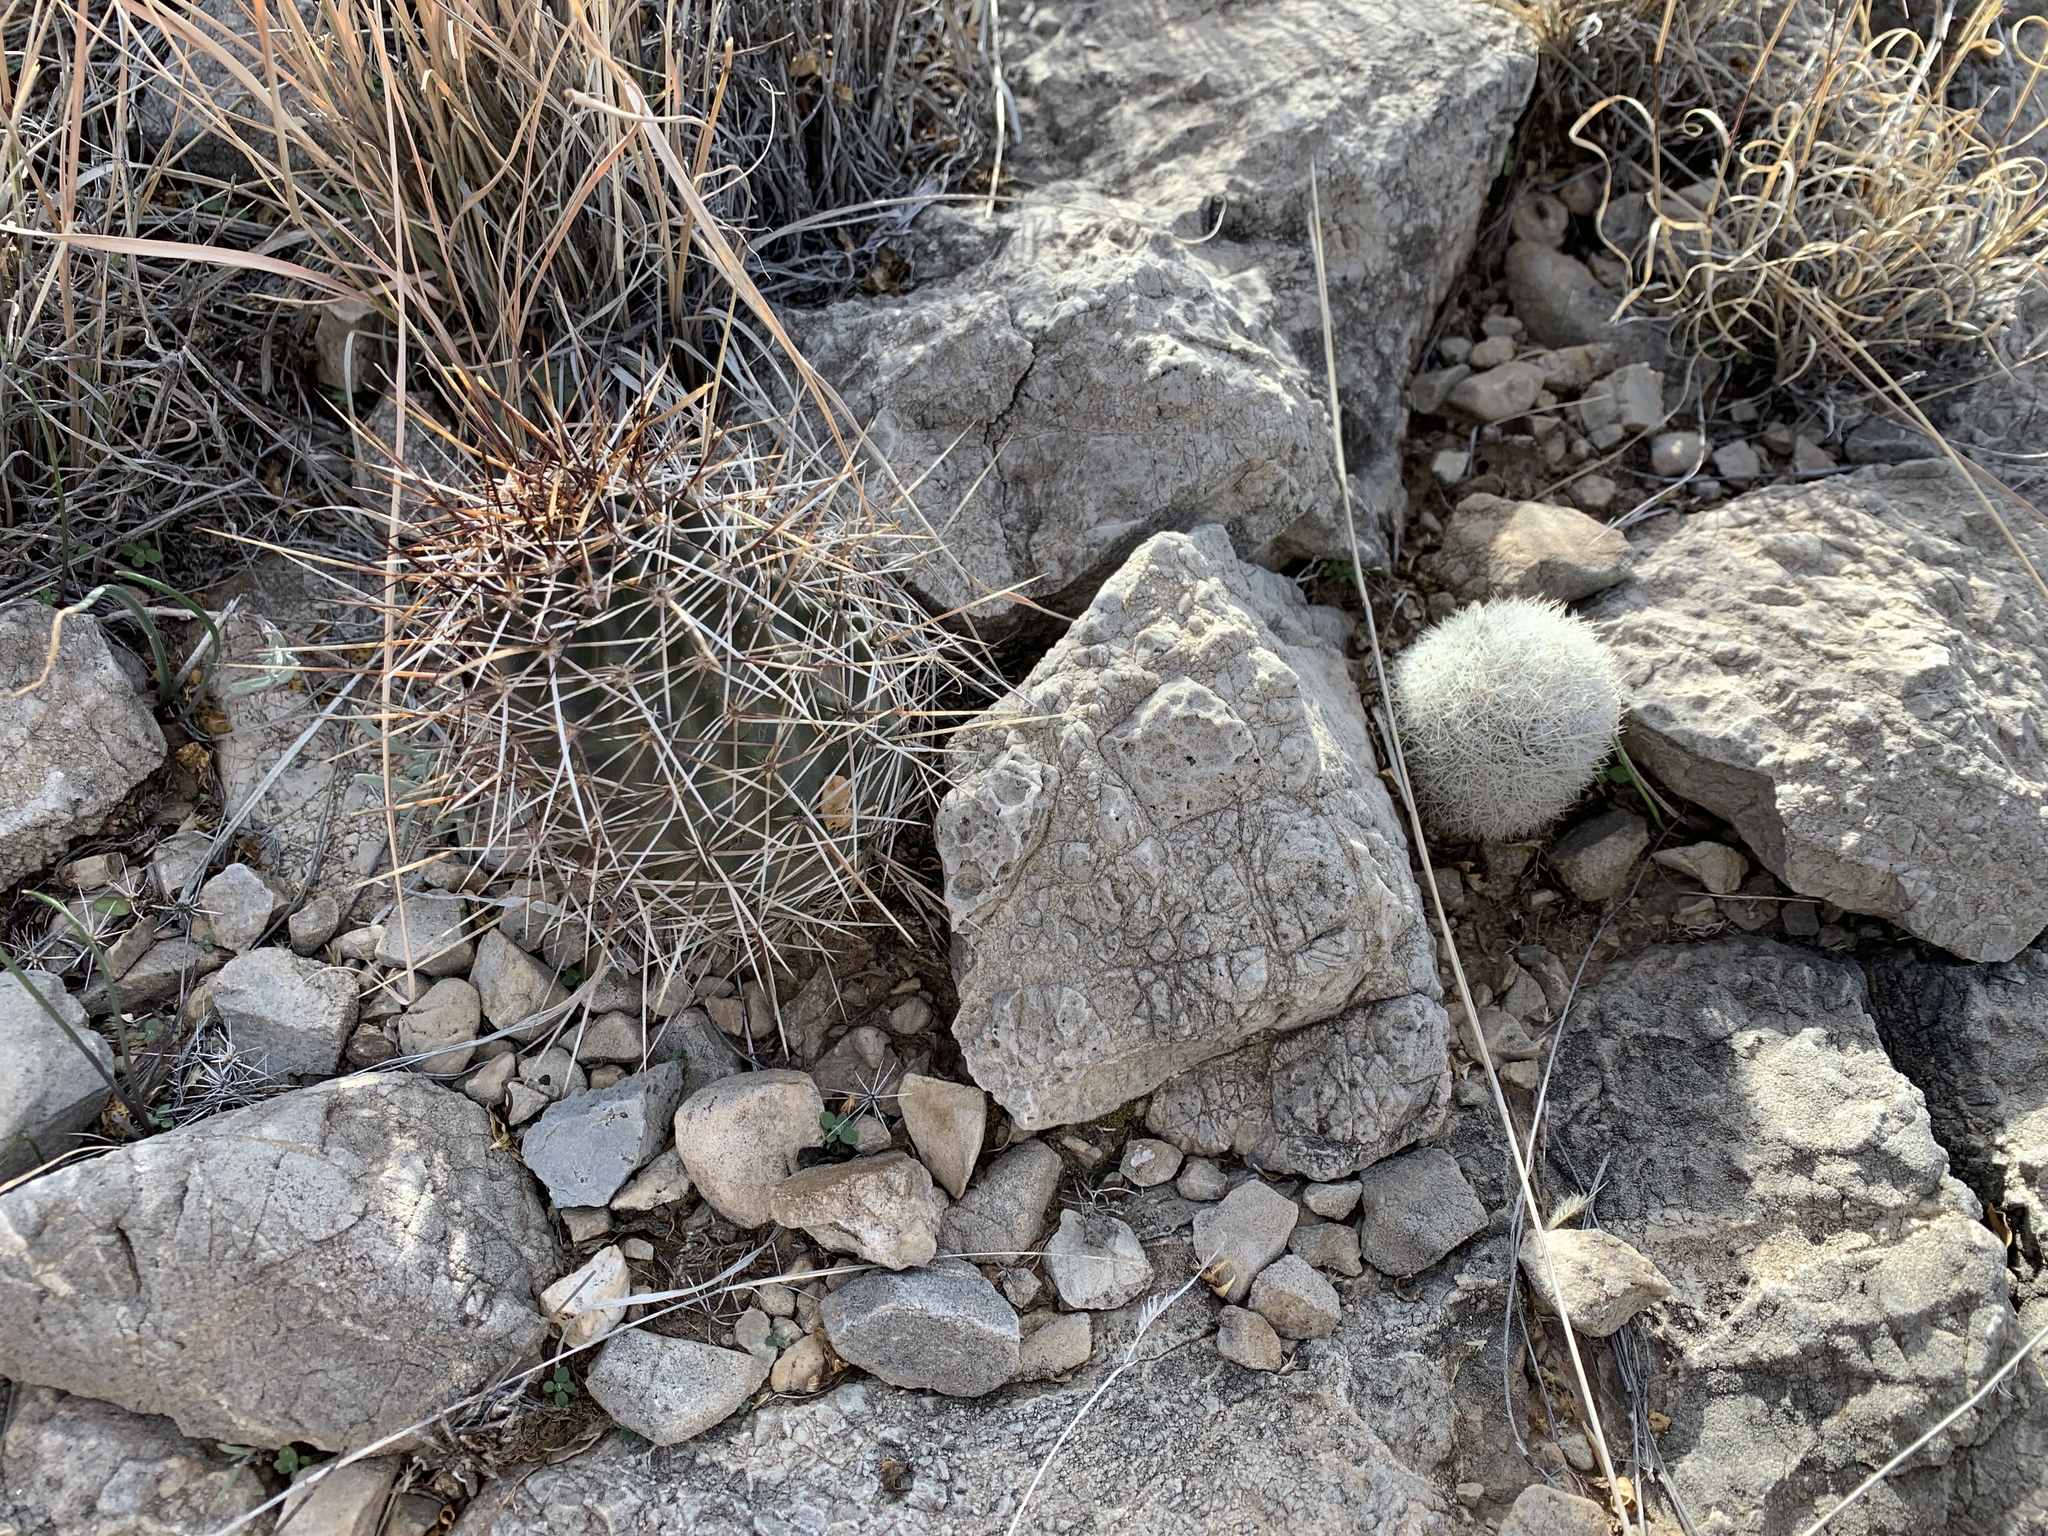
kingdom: Plantae
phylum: Tracheophyta
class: Magnoliopsida
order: Caryophyllales
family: Cactaceae
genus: Pelecyphora
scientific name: Pelecyphora sneedii
